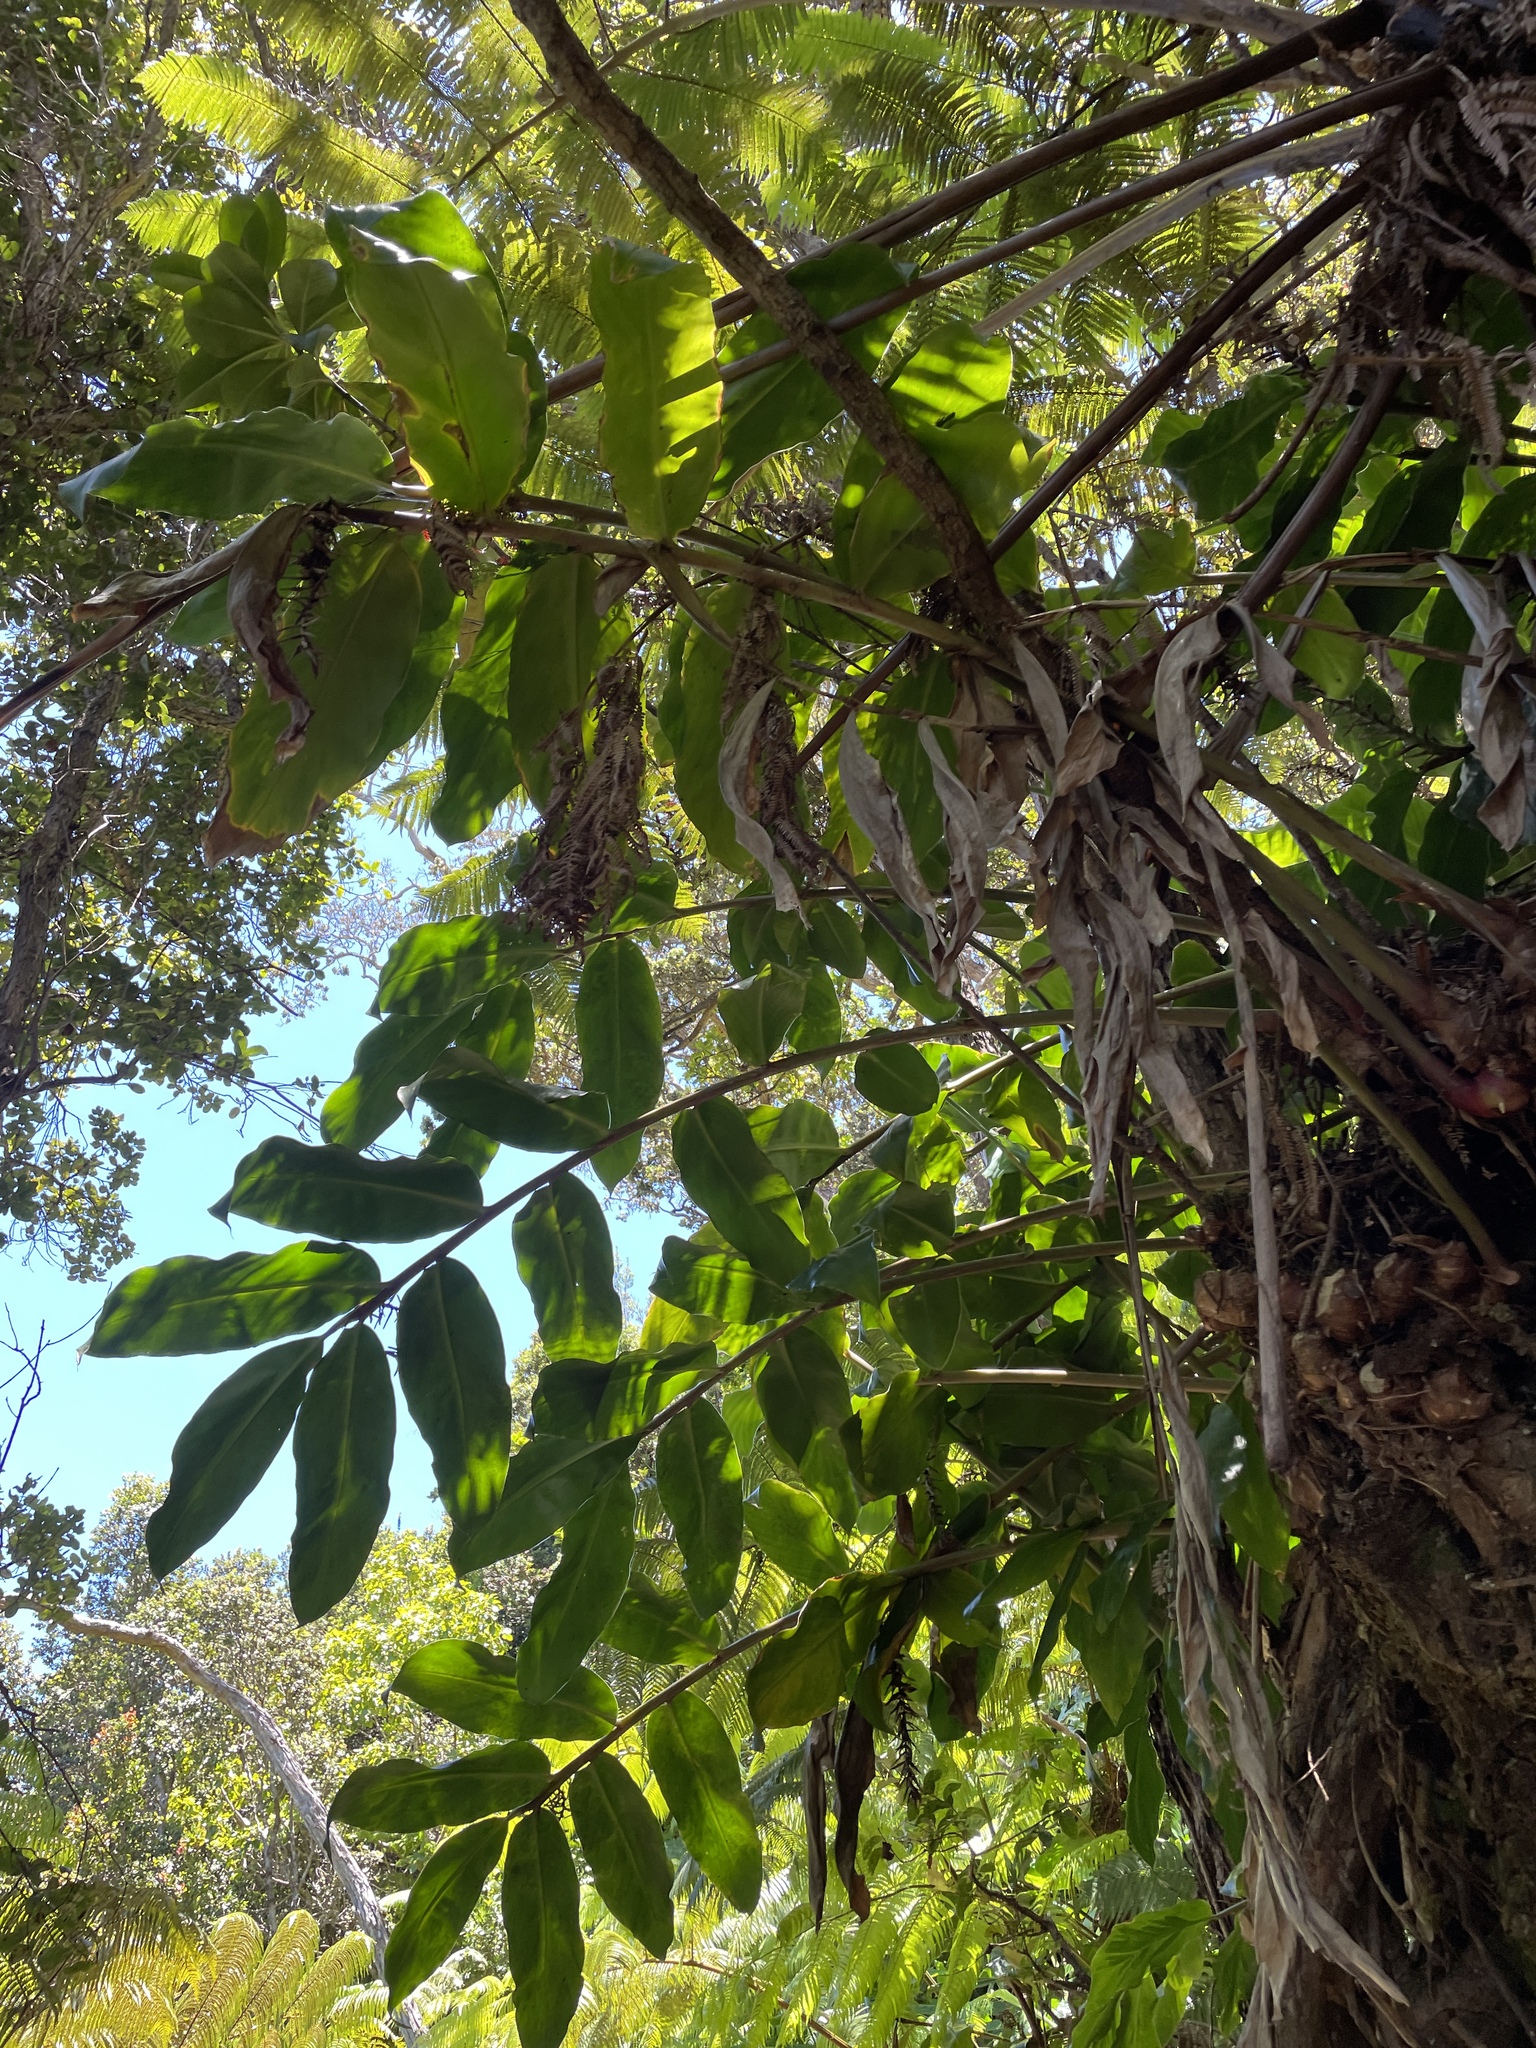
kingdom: Plantae
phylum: Tracheophyta
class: Liliopsida
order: Zingiberales
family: Zingiberaceae
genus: Hedychium
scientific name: Hedychium gardnerianum
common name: Himalayan ginger
